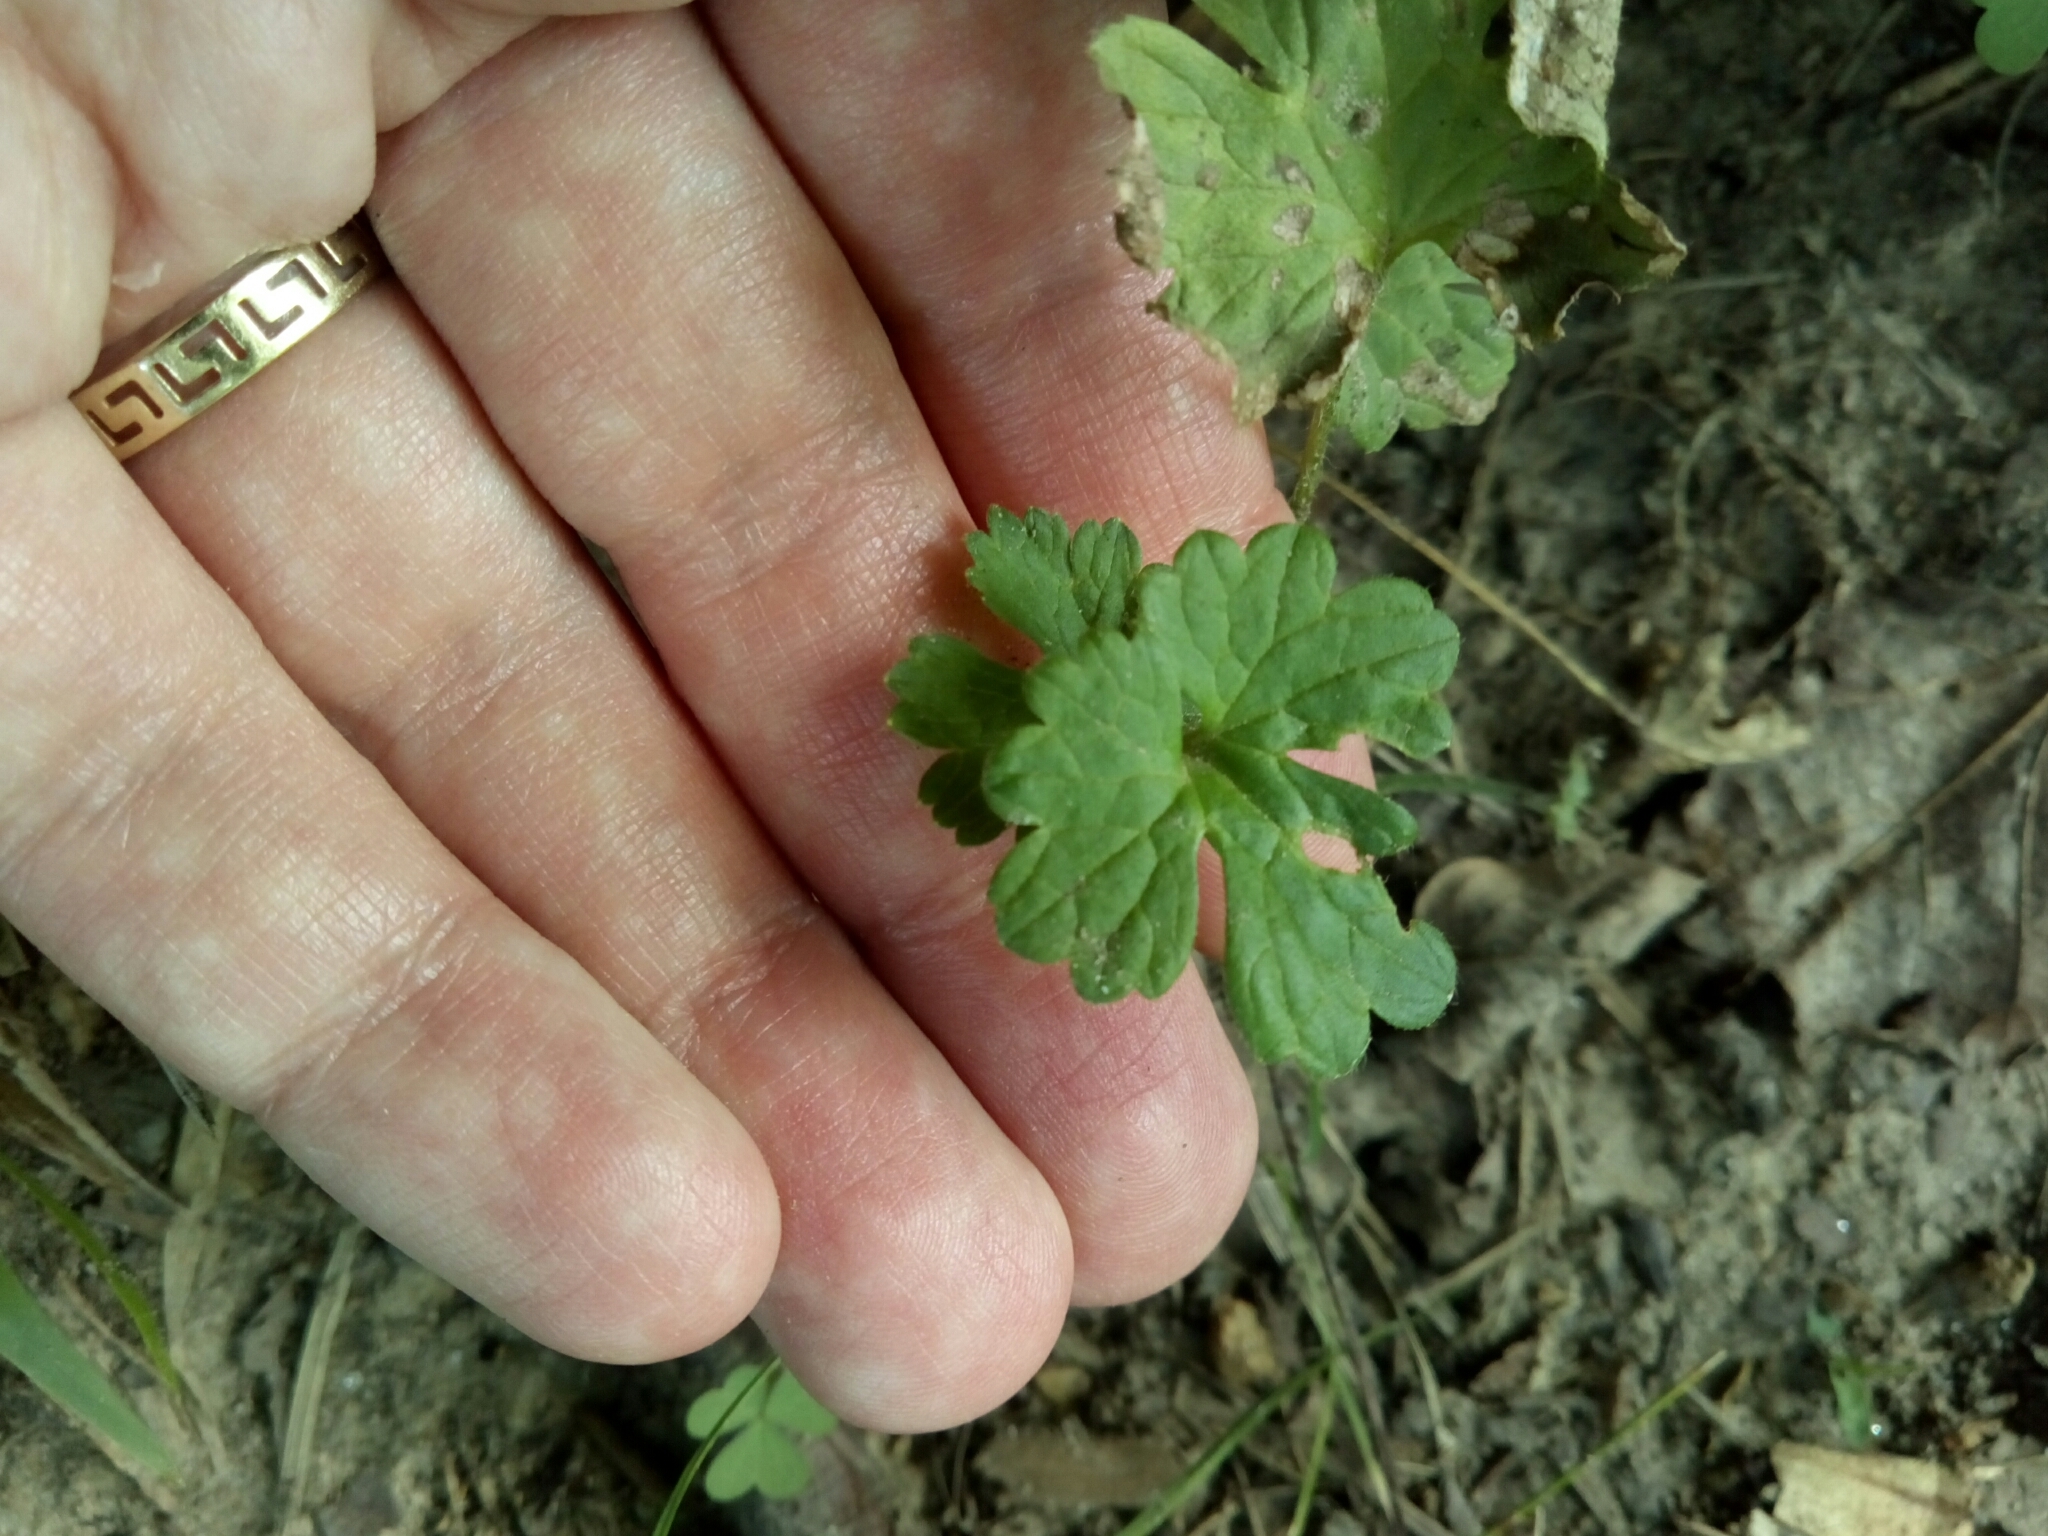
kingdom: Plantae
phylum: Tracheophyta
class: Magnoliopsida
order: Lamiales
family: Lamiaceae
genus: Lamium
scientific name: Lamium amplexicaule
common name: Henbit dead-nettle
